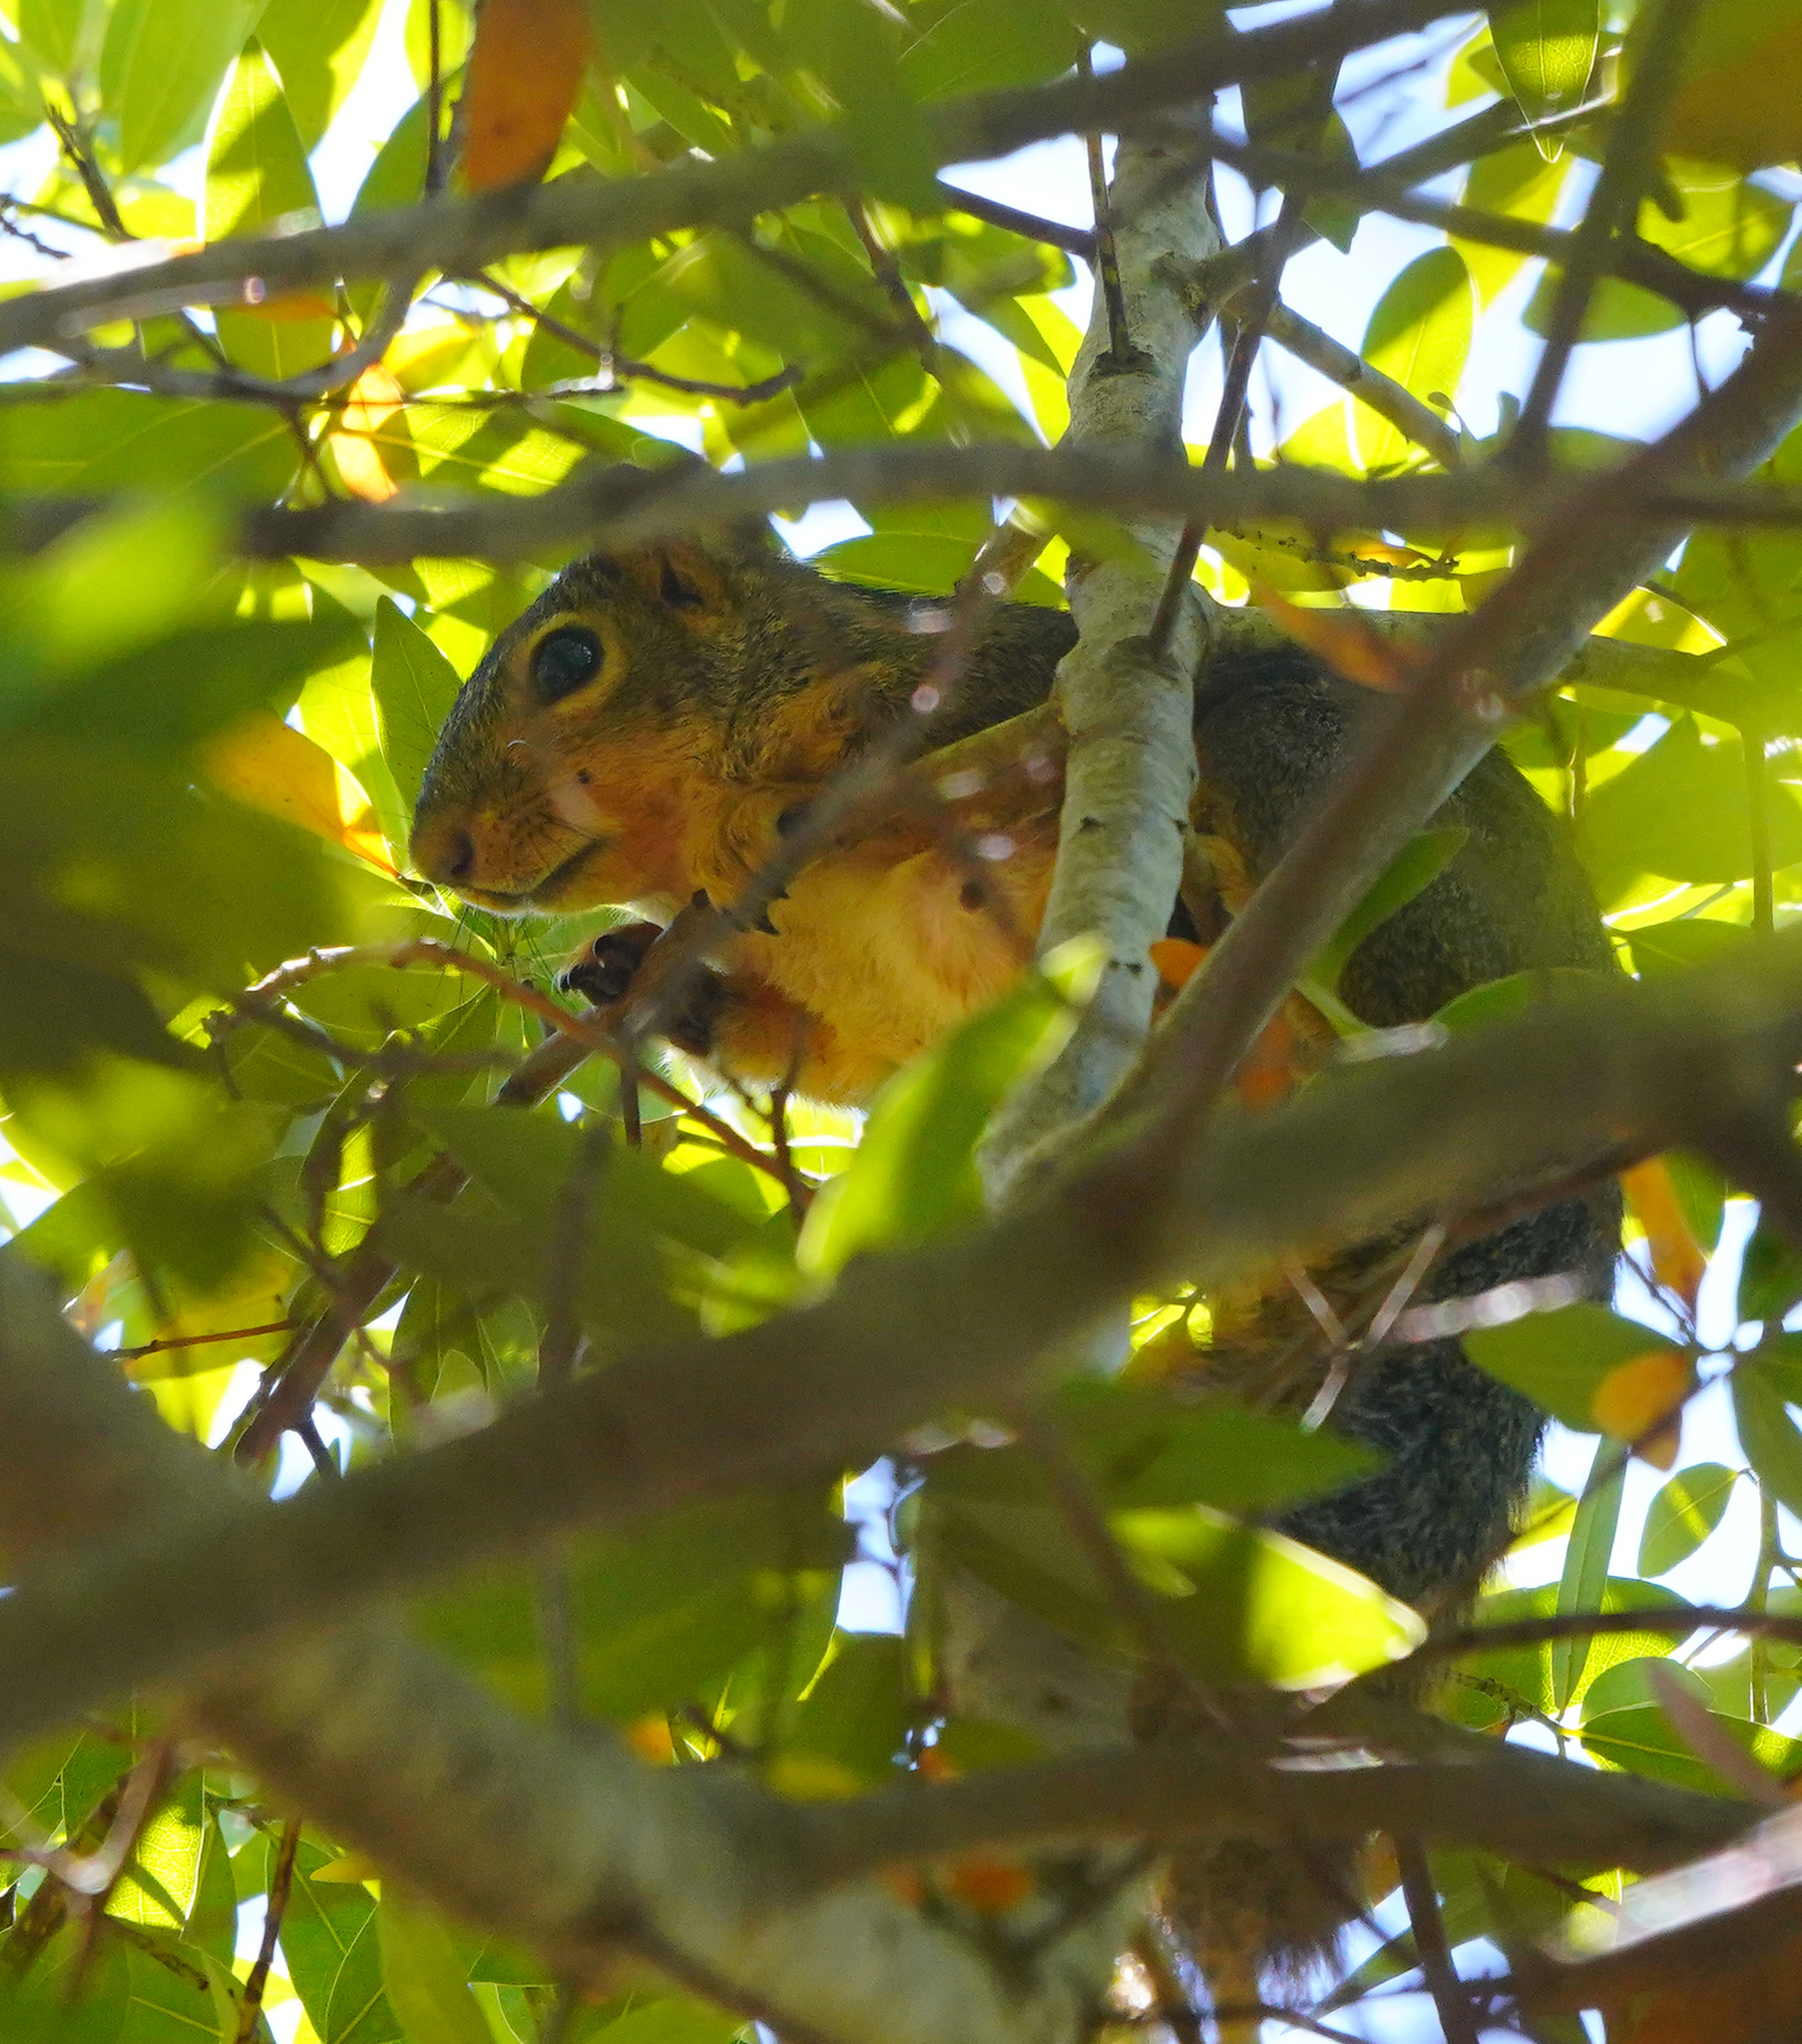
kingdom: Animalia
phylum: Chordata
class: Mammalia
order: Rodentia
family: Sciuridae
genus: Sciurus
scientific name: Sciurus niger
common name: Fox squirrel
